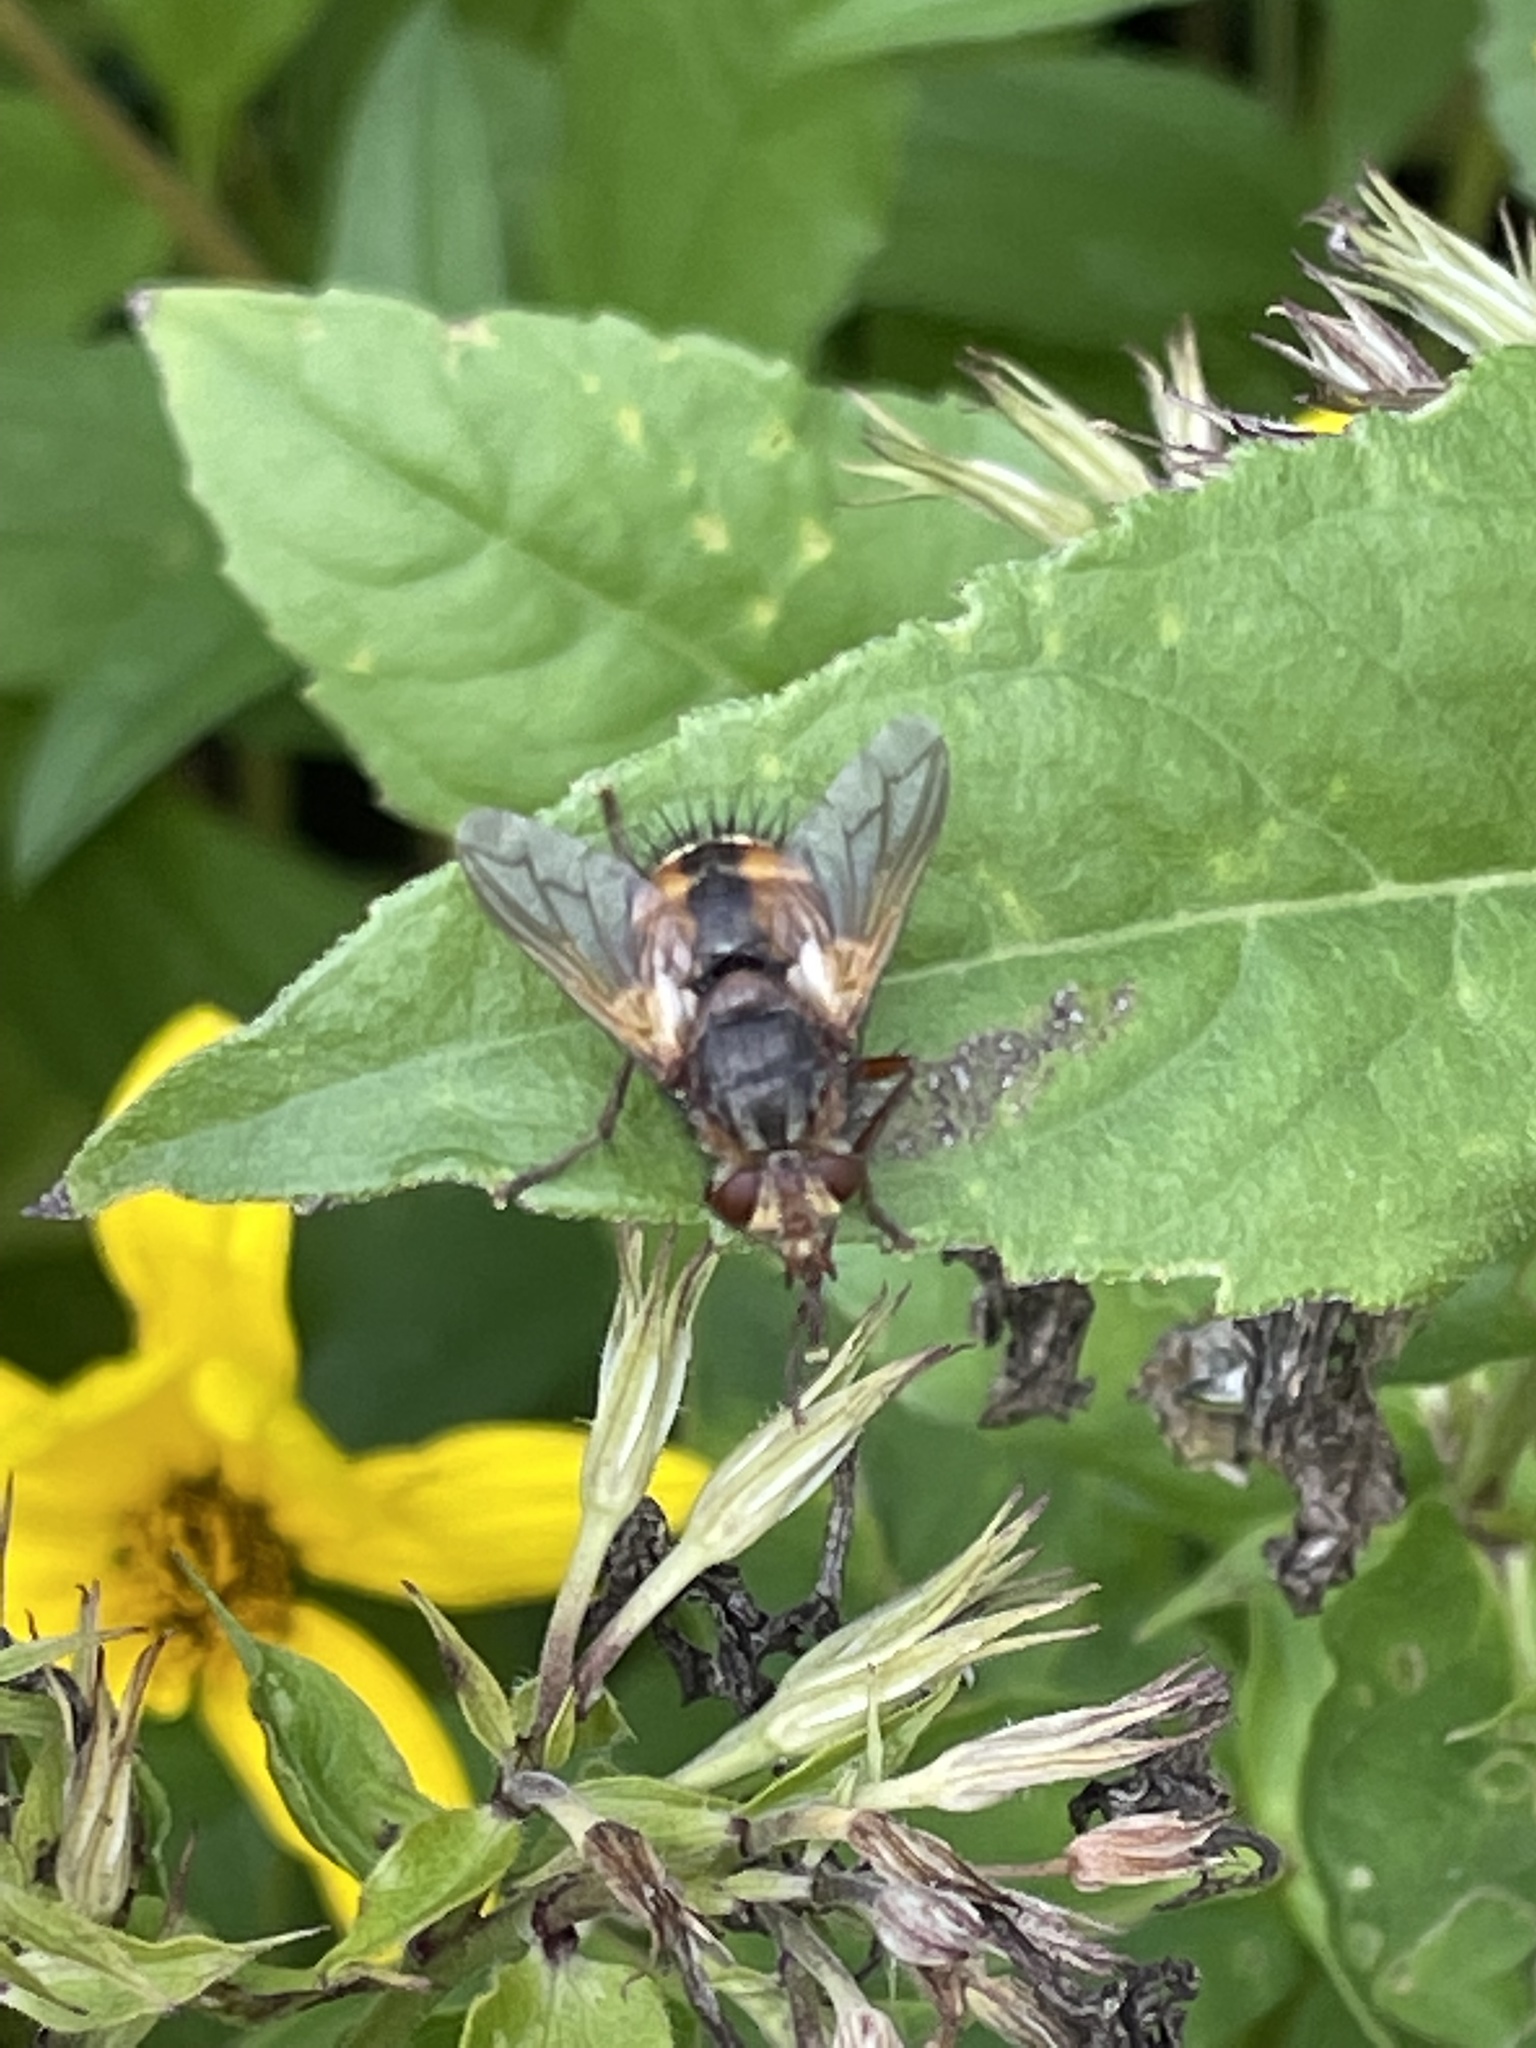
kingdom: Animalia
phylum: Arthropoda
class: Insecta
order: Diptera
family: Tachinidae
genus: Tachina
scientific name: Tachina fera
